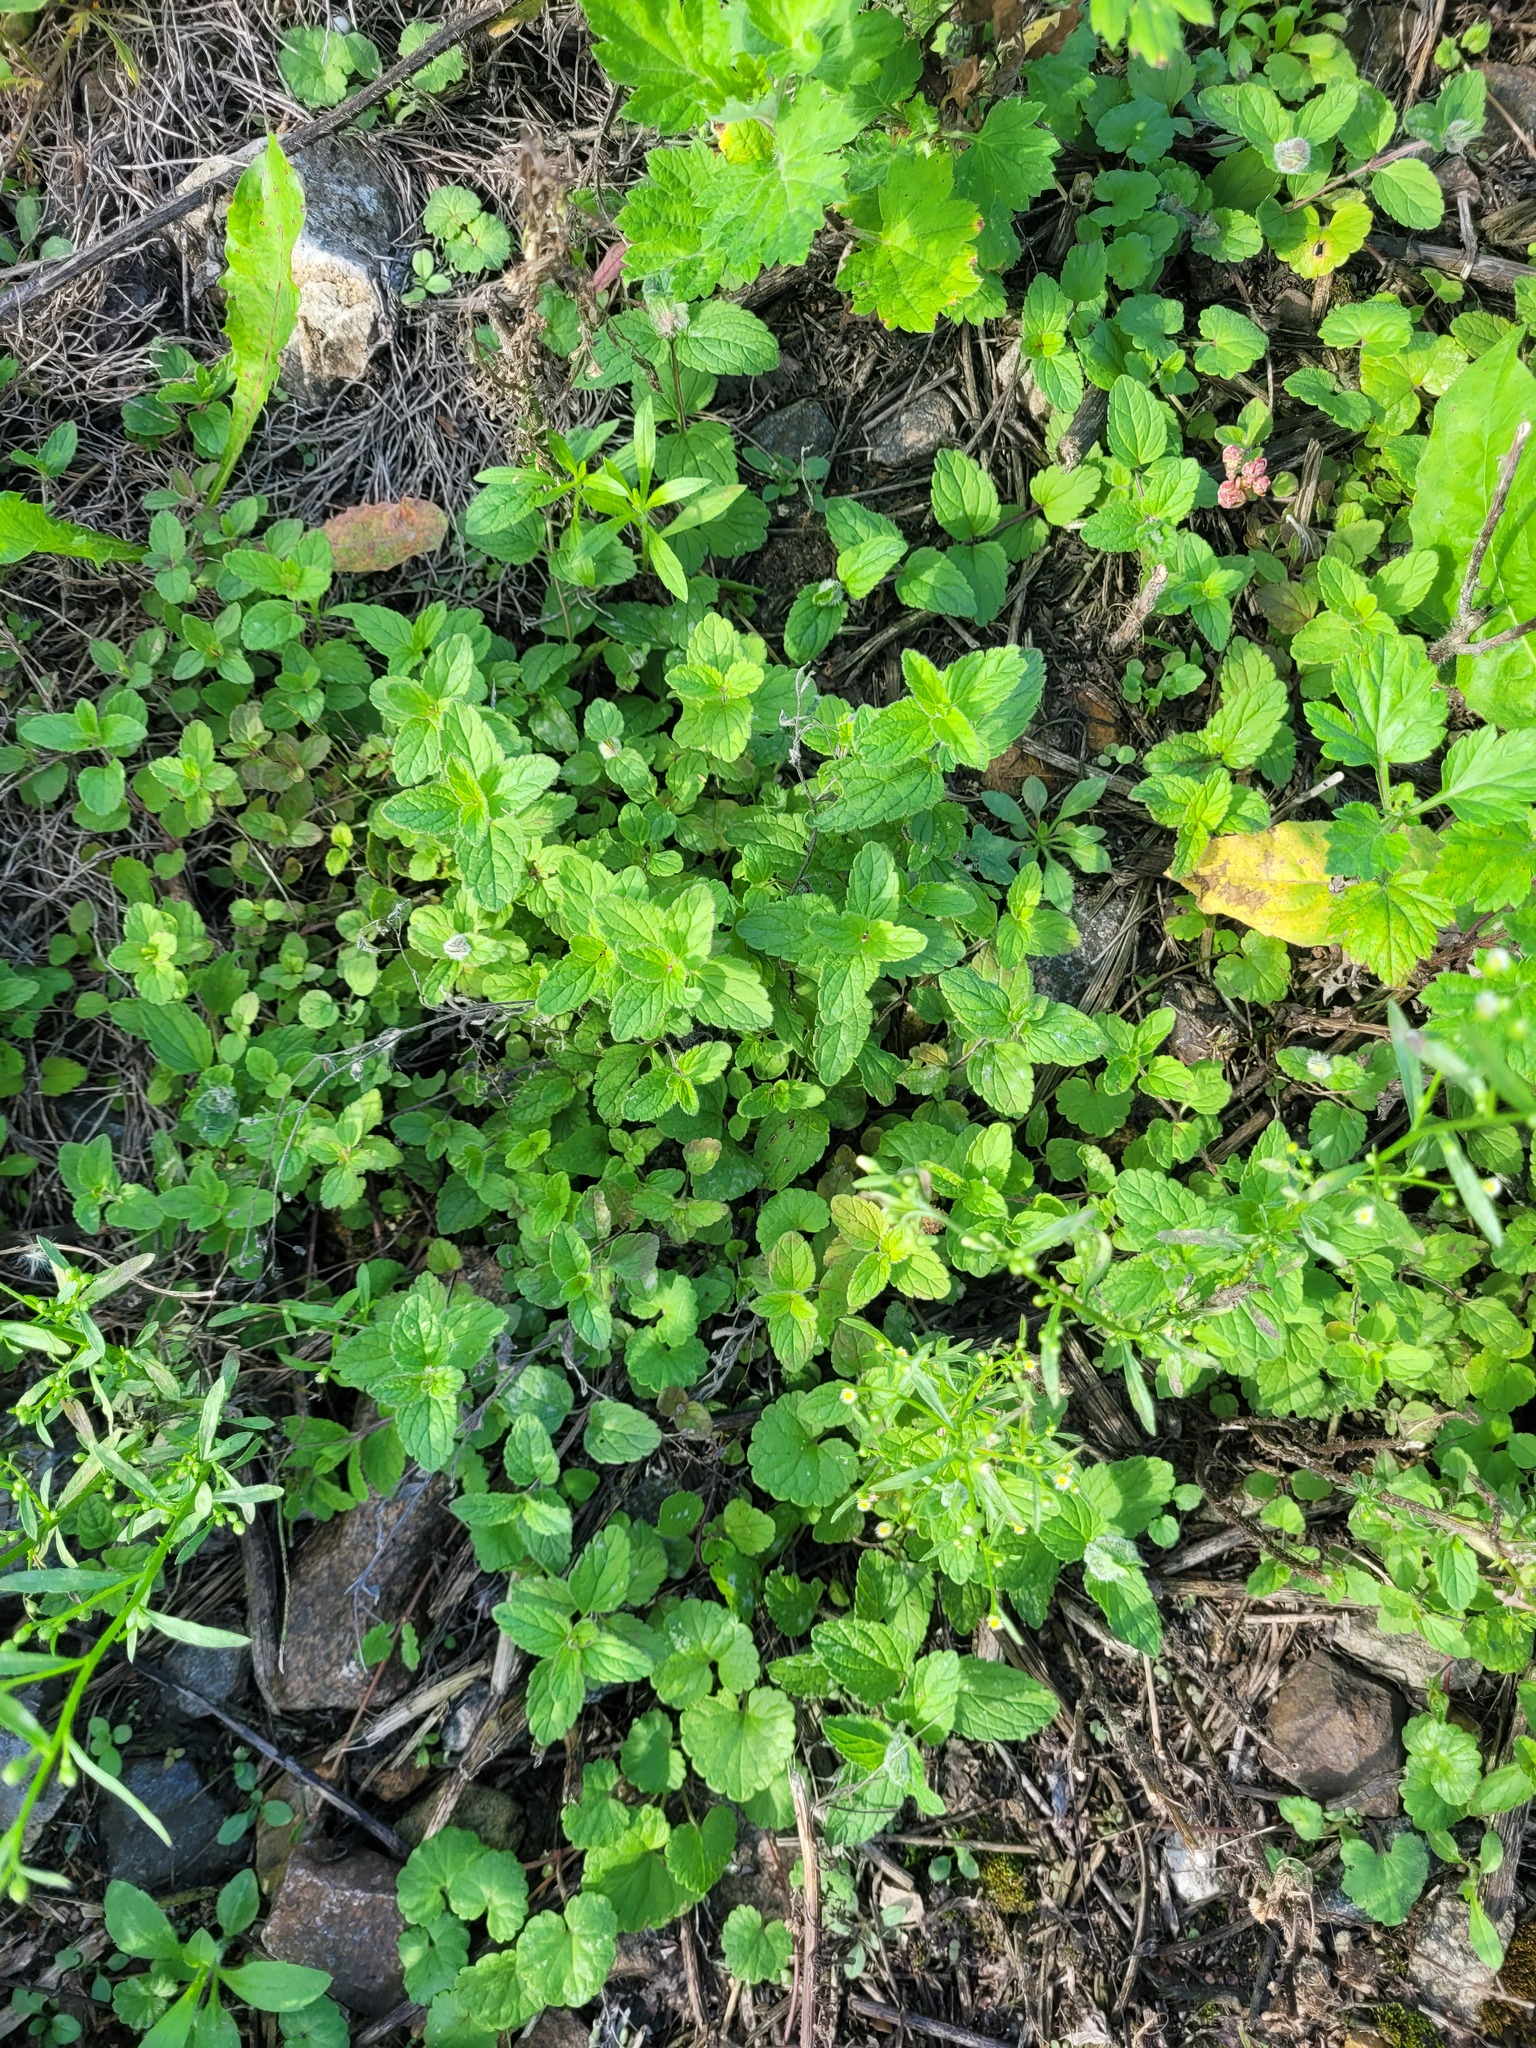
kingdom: Plantae
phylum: Tracheophyta
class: Magnoliopsida
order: Lamiales
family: Plantaginaceae
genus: Veronica
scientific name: Veronica chamaedrys
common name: Germander speedwell
